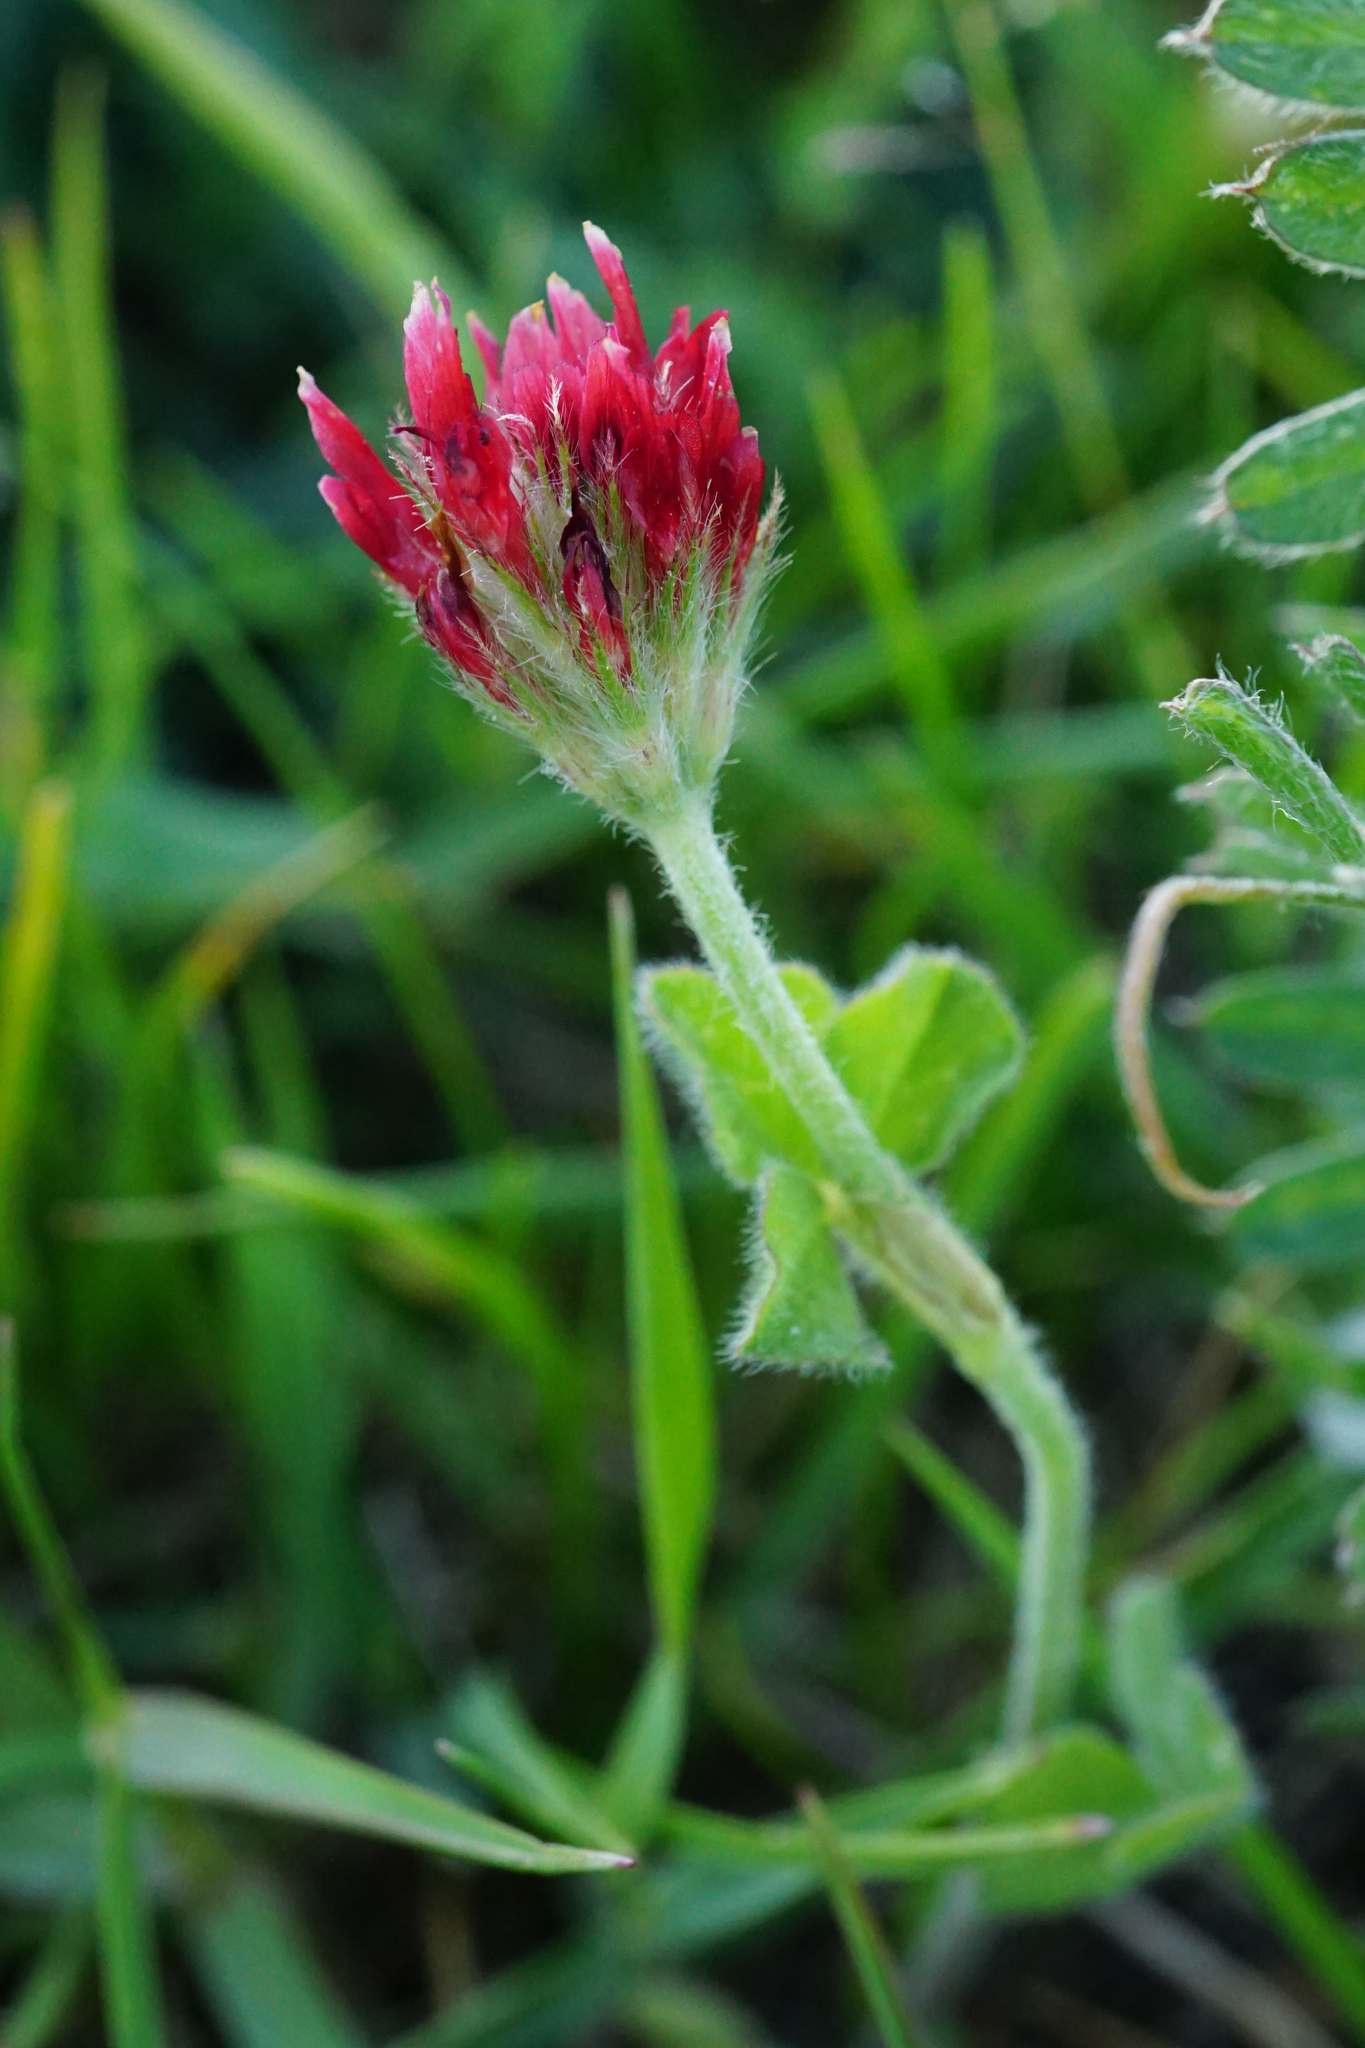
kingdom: Plantae
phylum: Tracheophyta
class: Magnoliopsida
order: Fabales
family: Fabaceae
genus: Trifolium
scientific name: Trifolium incarnatum
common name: Crimson clover
